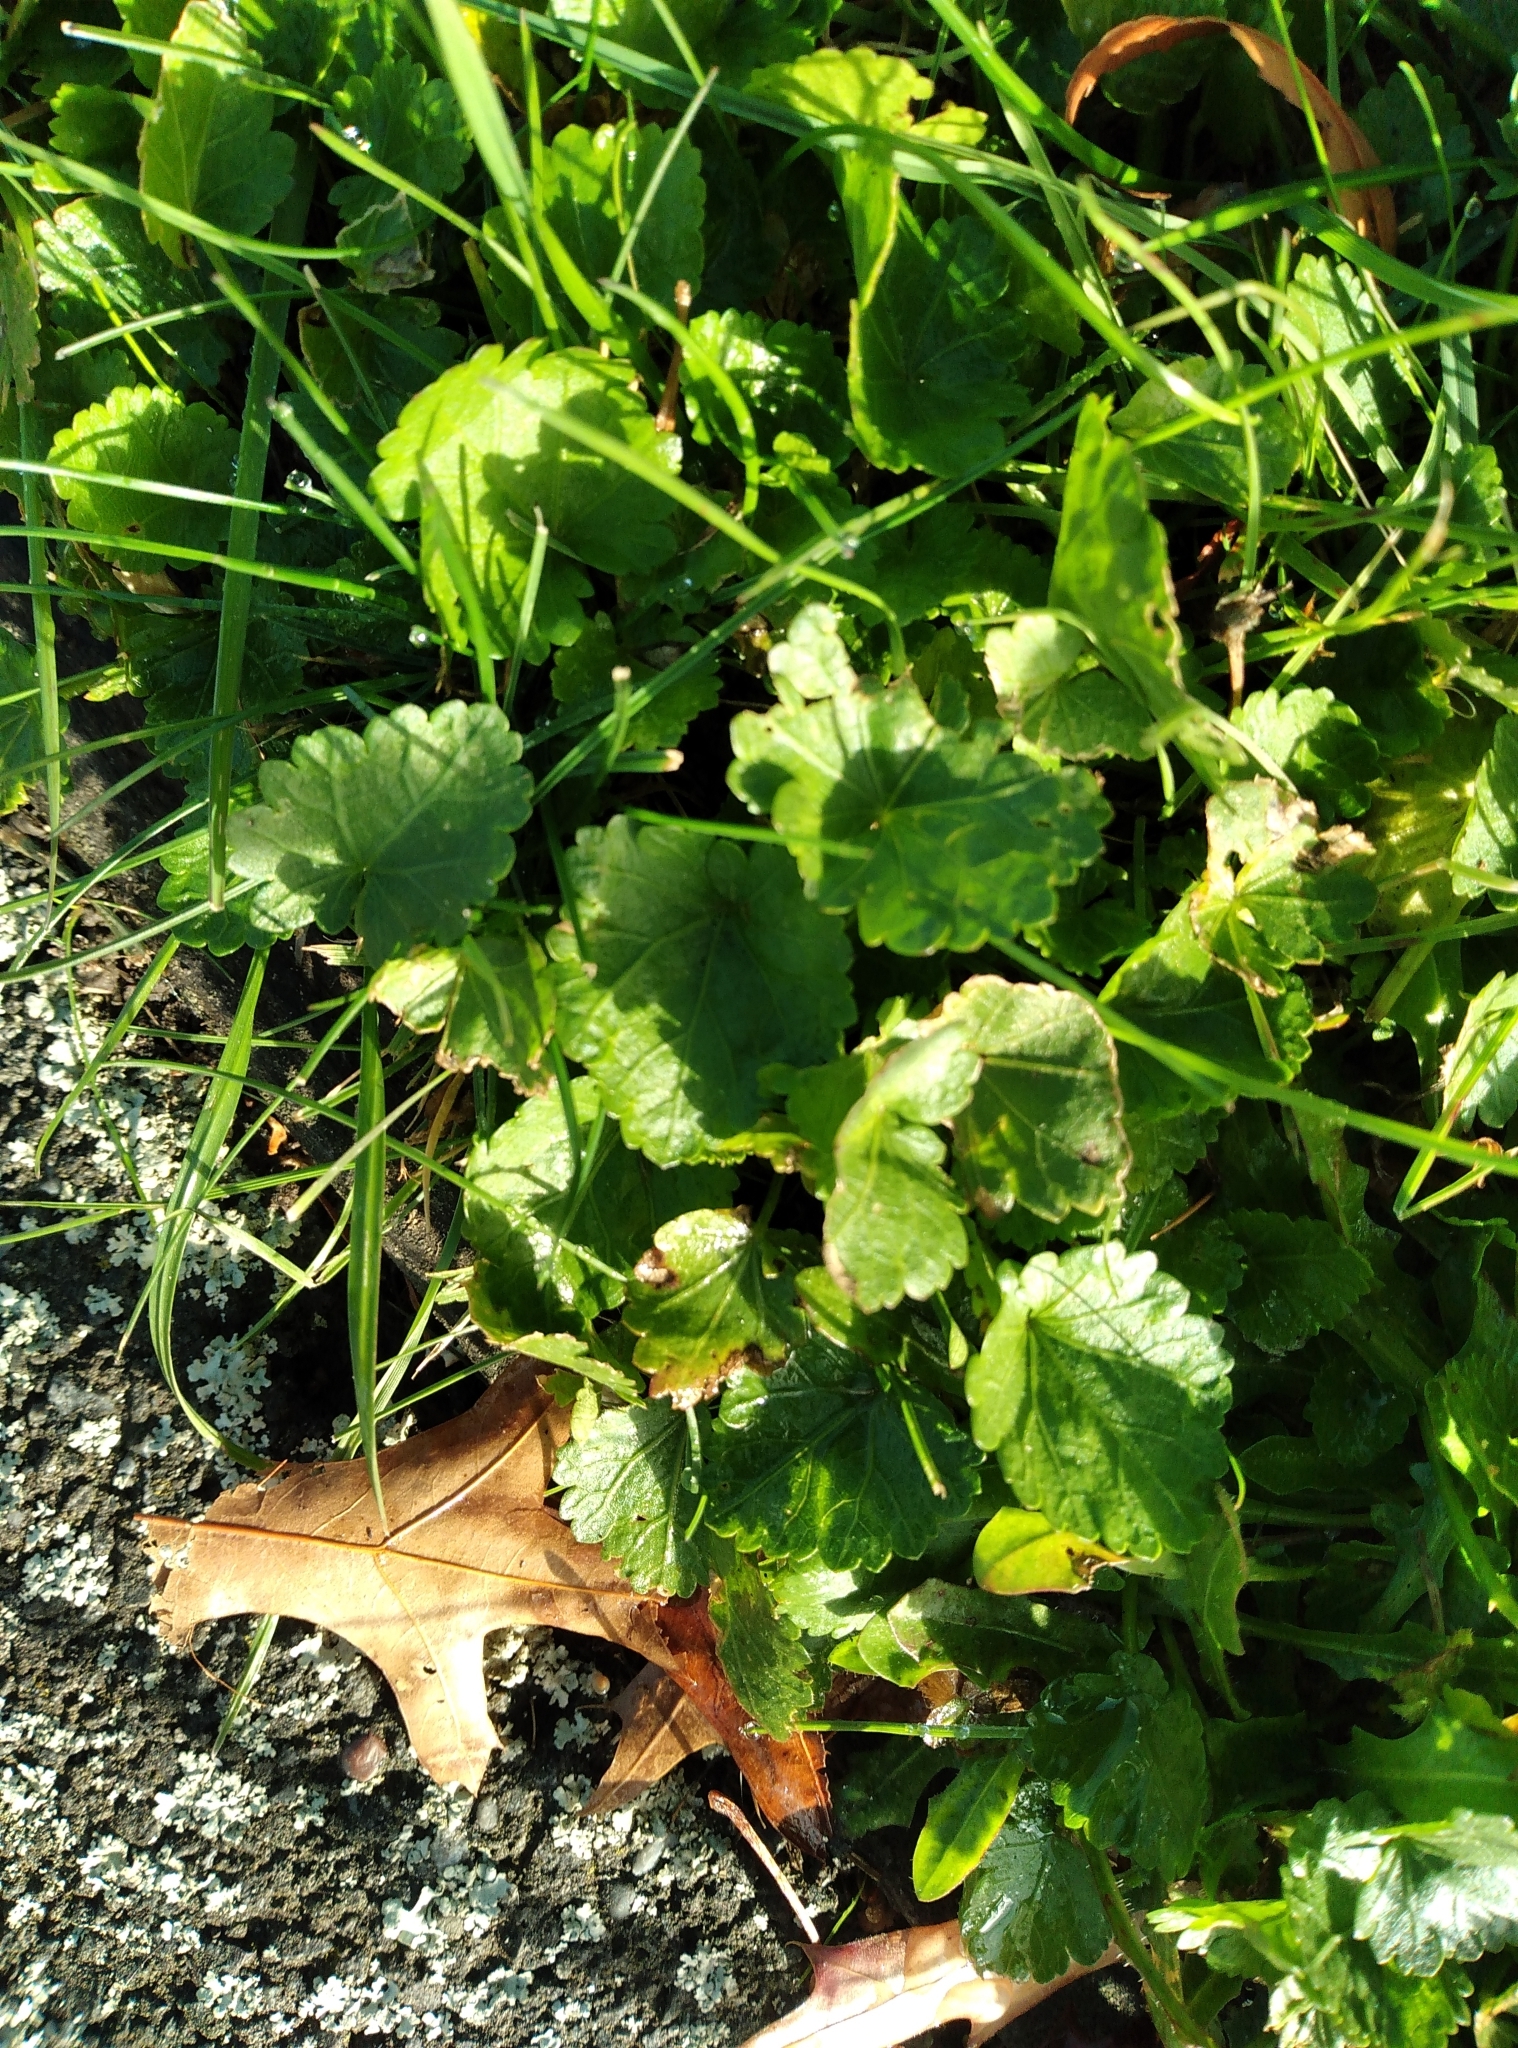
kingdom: Plantae
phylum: Tracheophyta
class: Magnoliopsida
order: Malvales
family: Malvaceae
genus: Modiola
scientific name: Modiola caroliniana
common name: Carolina bristlemallow
